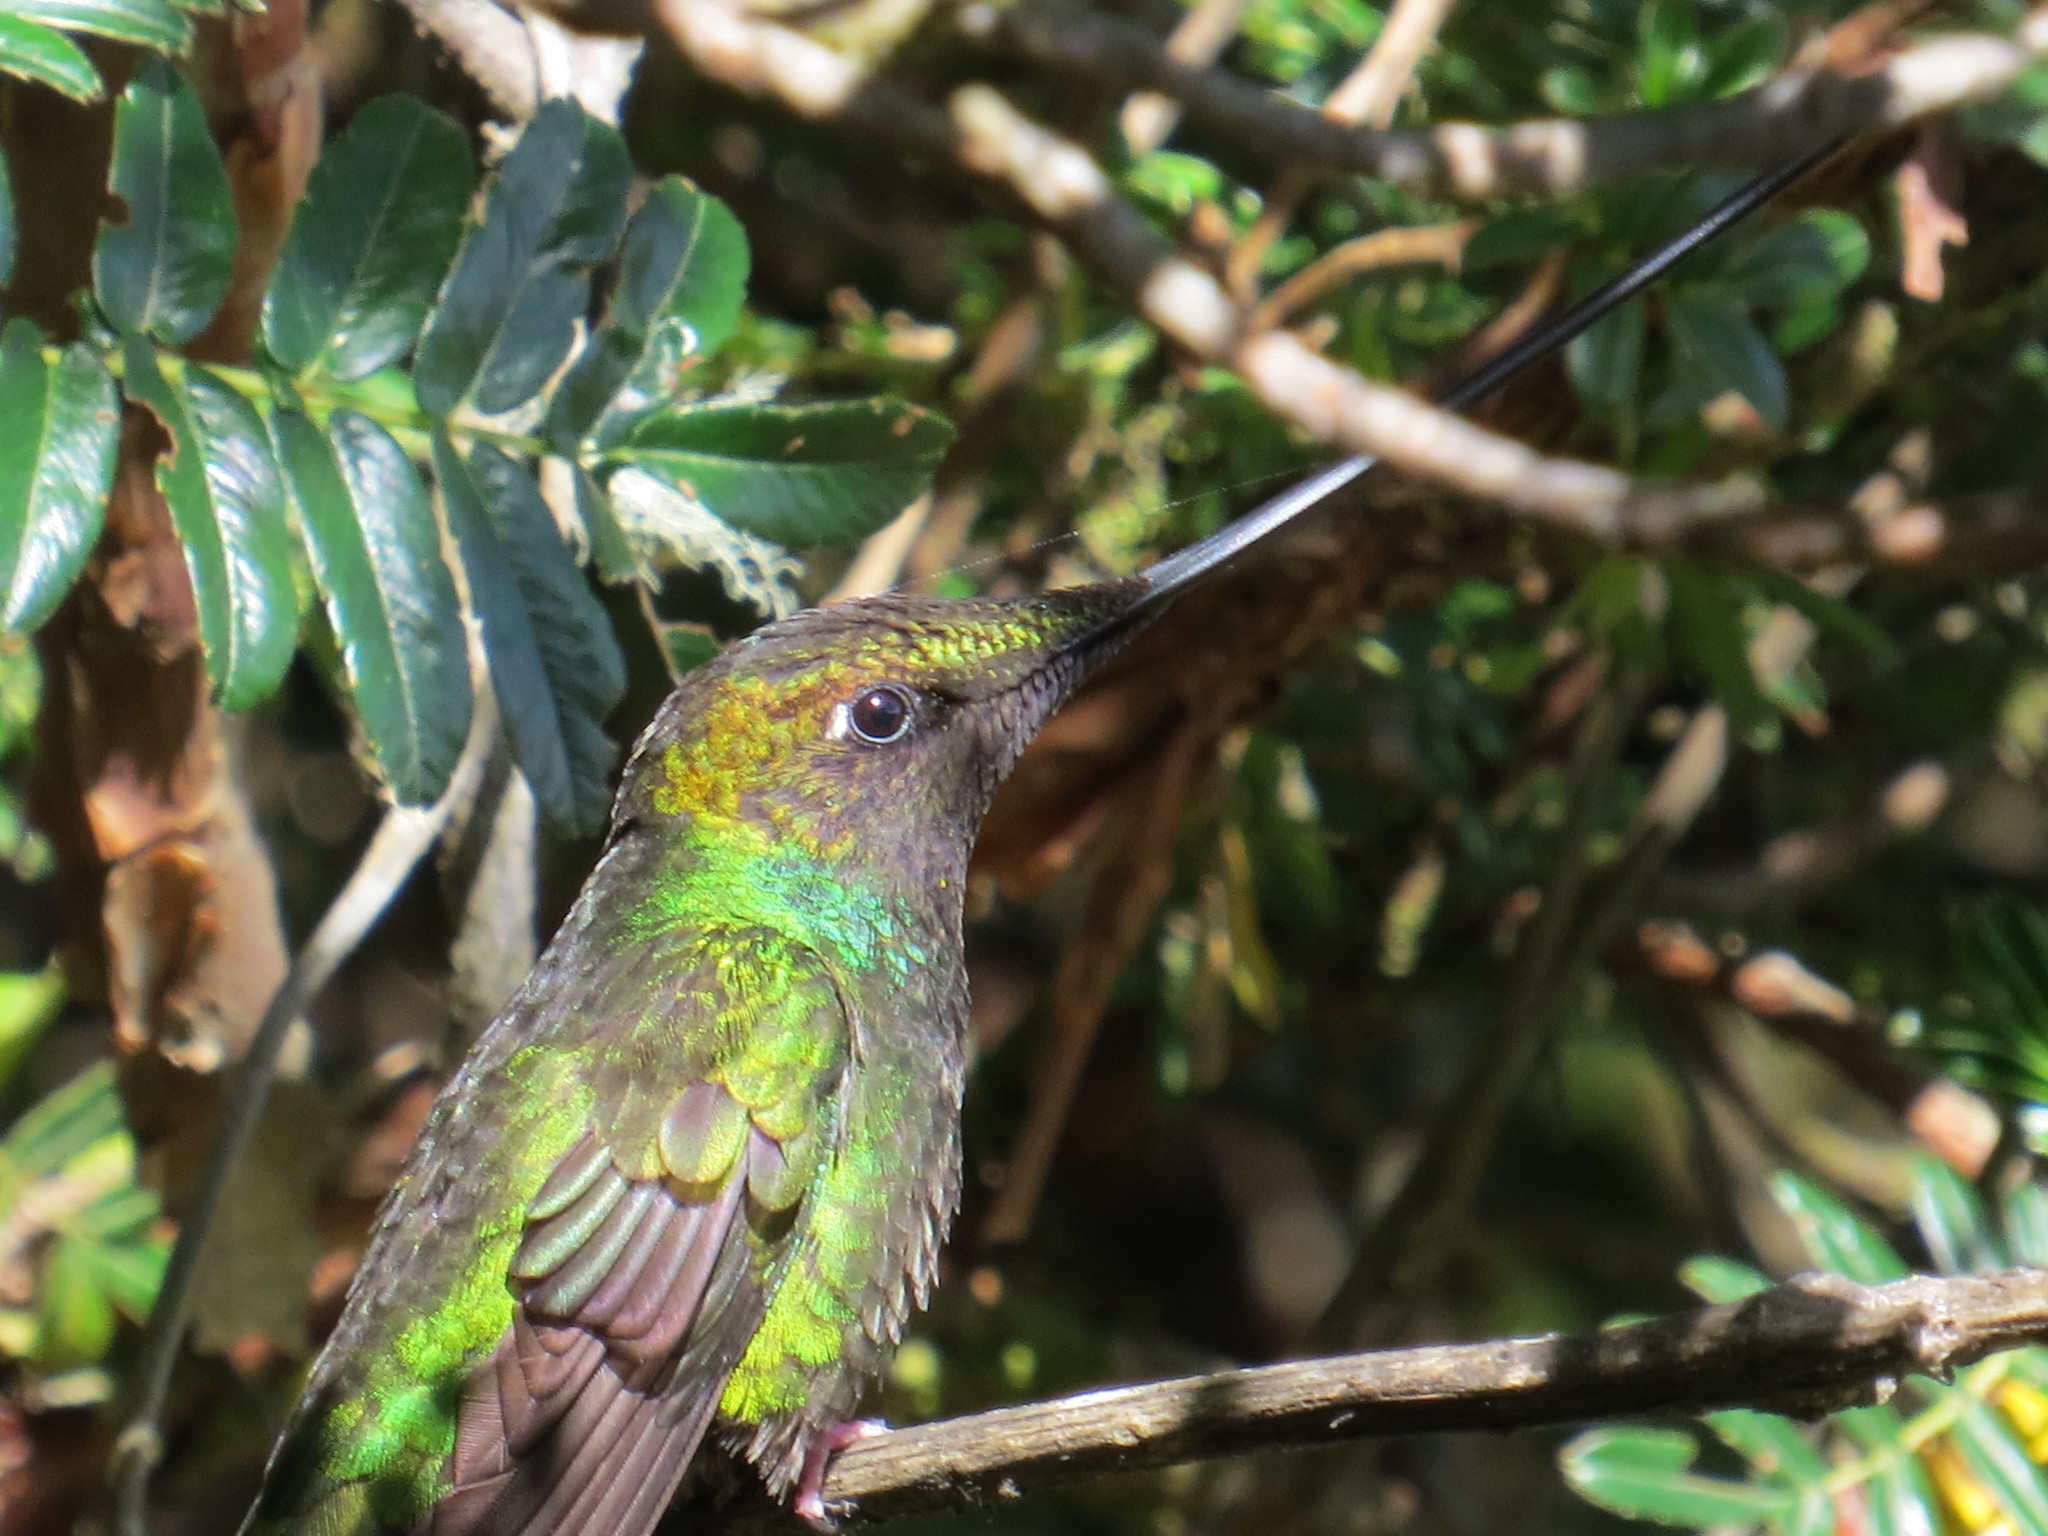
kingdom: Animalia
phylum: Chordata
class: Aves
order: Apodiformes
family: Trochilidae
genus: Ensifera
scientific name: Ensifera ensifera
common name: Sword-billed hummingbird
